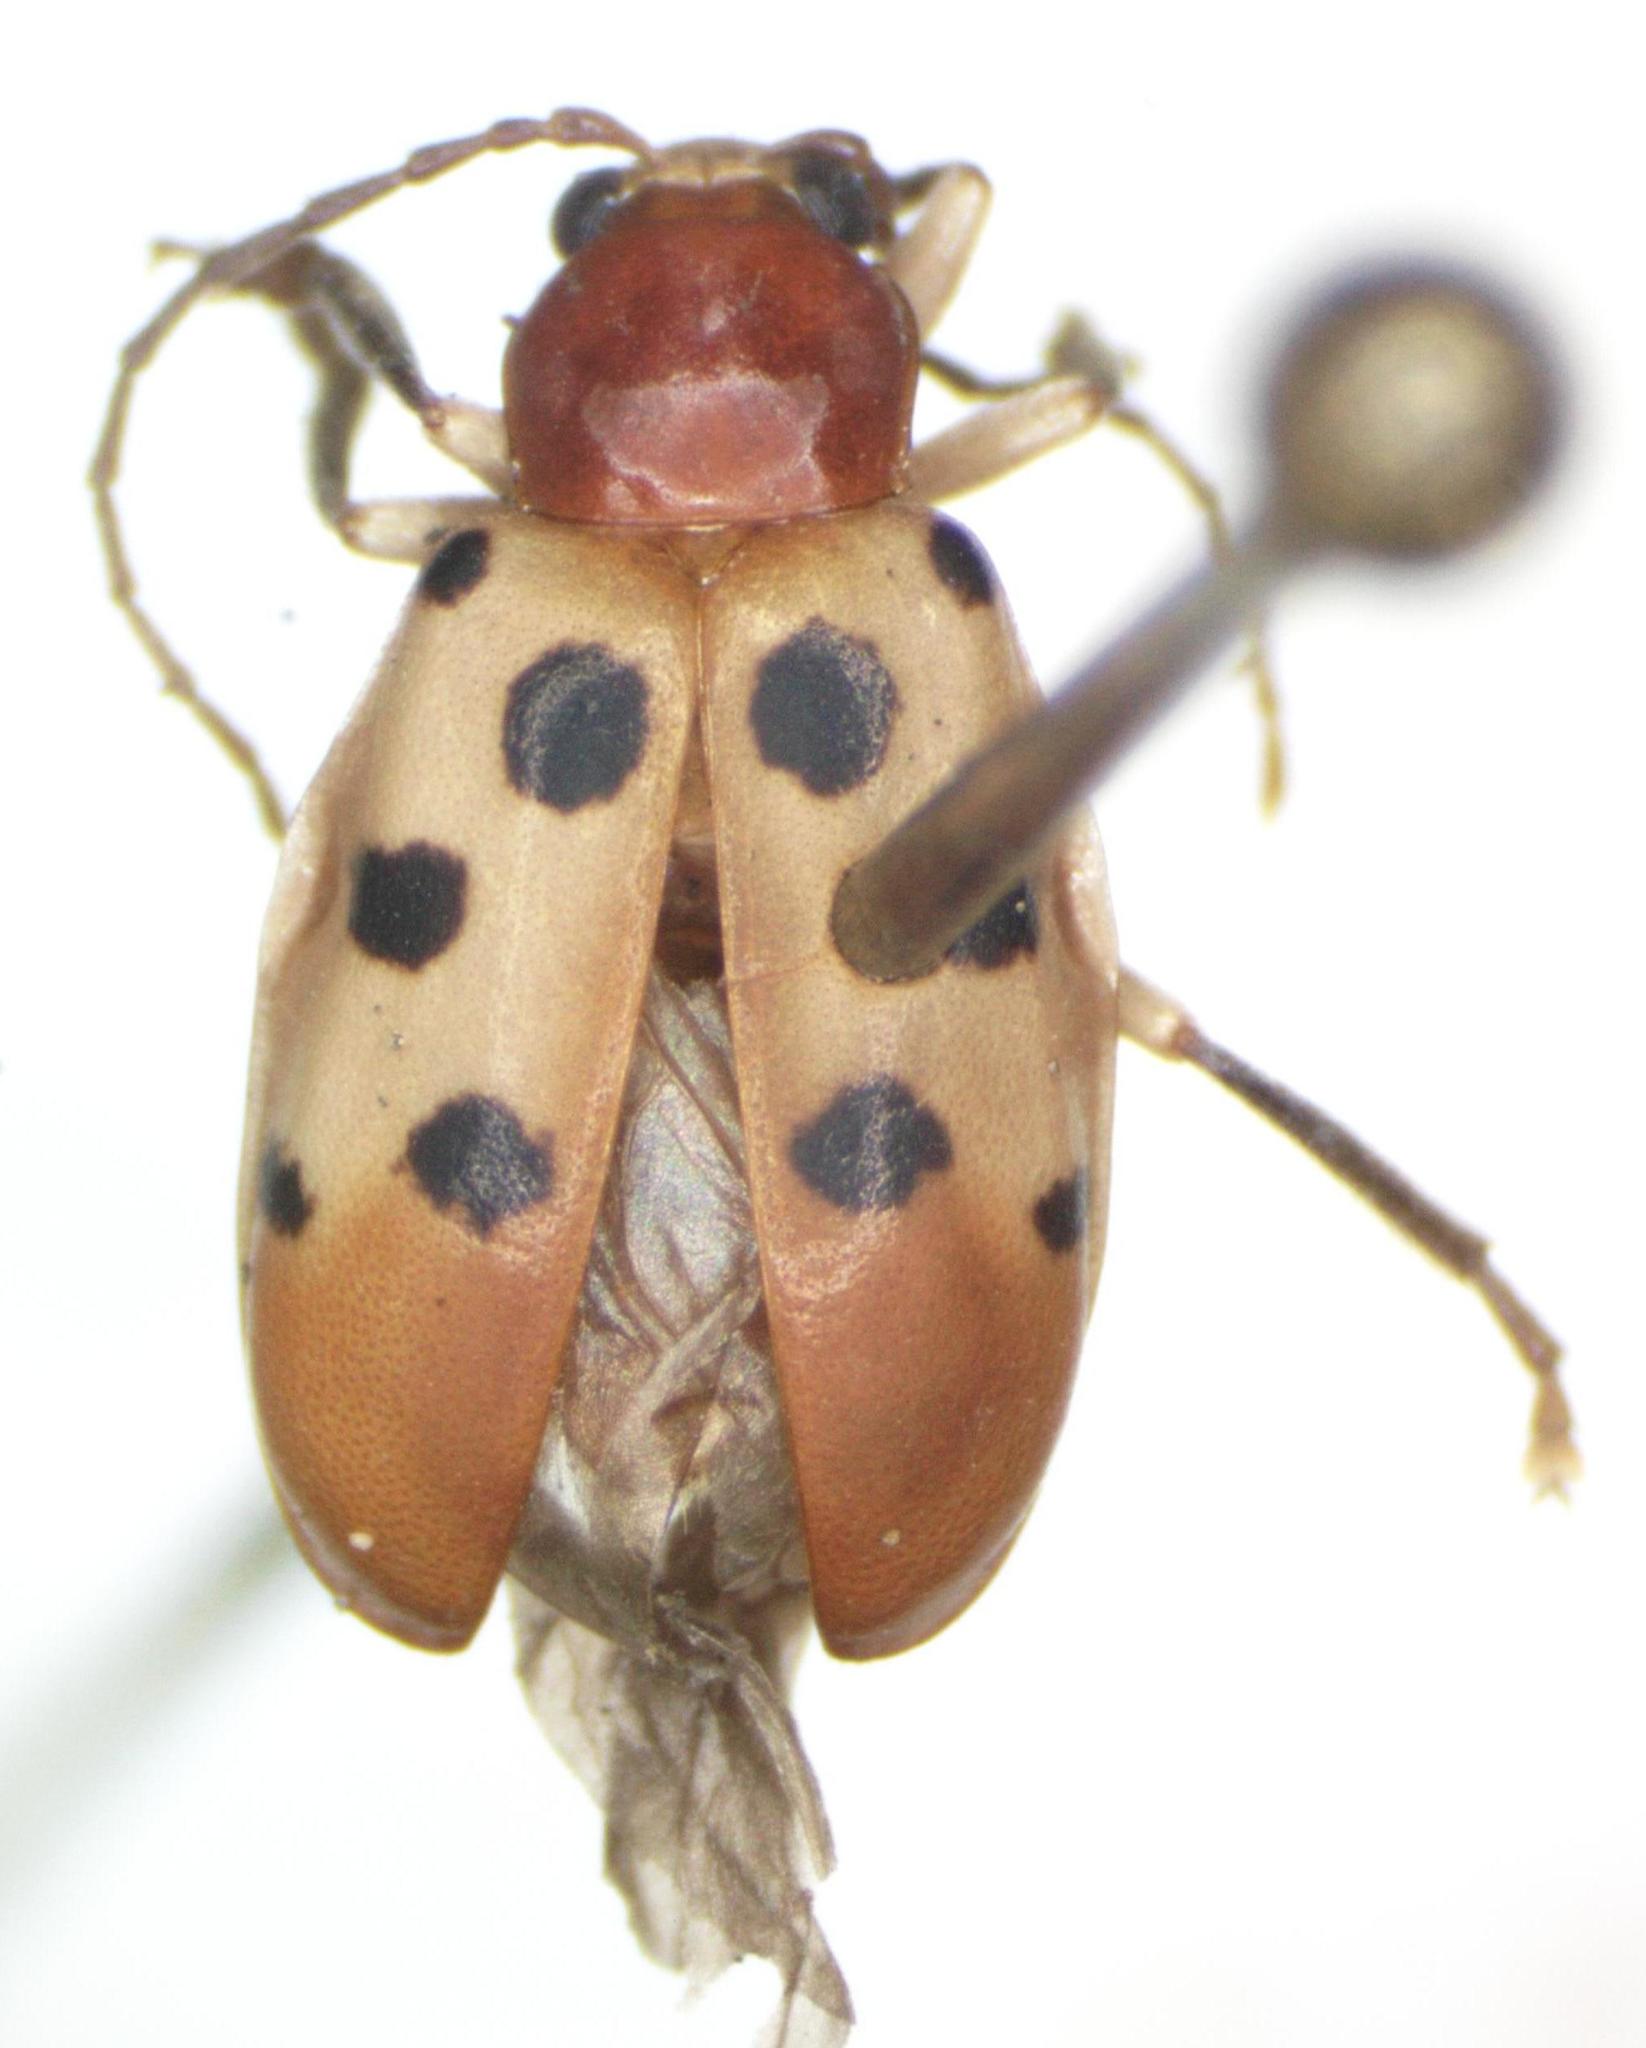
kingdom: Animalia
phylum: Arthropoda
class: Insecta
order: Coleoptera
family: Chrysomelidae
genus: Malacorhinus
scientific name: Malacorhinus
